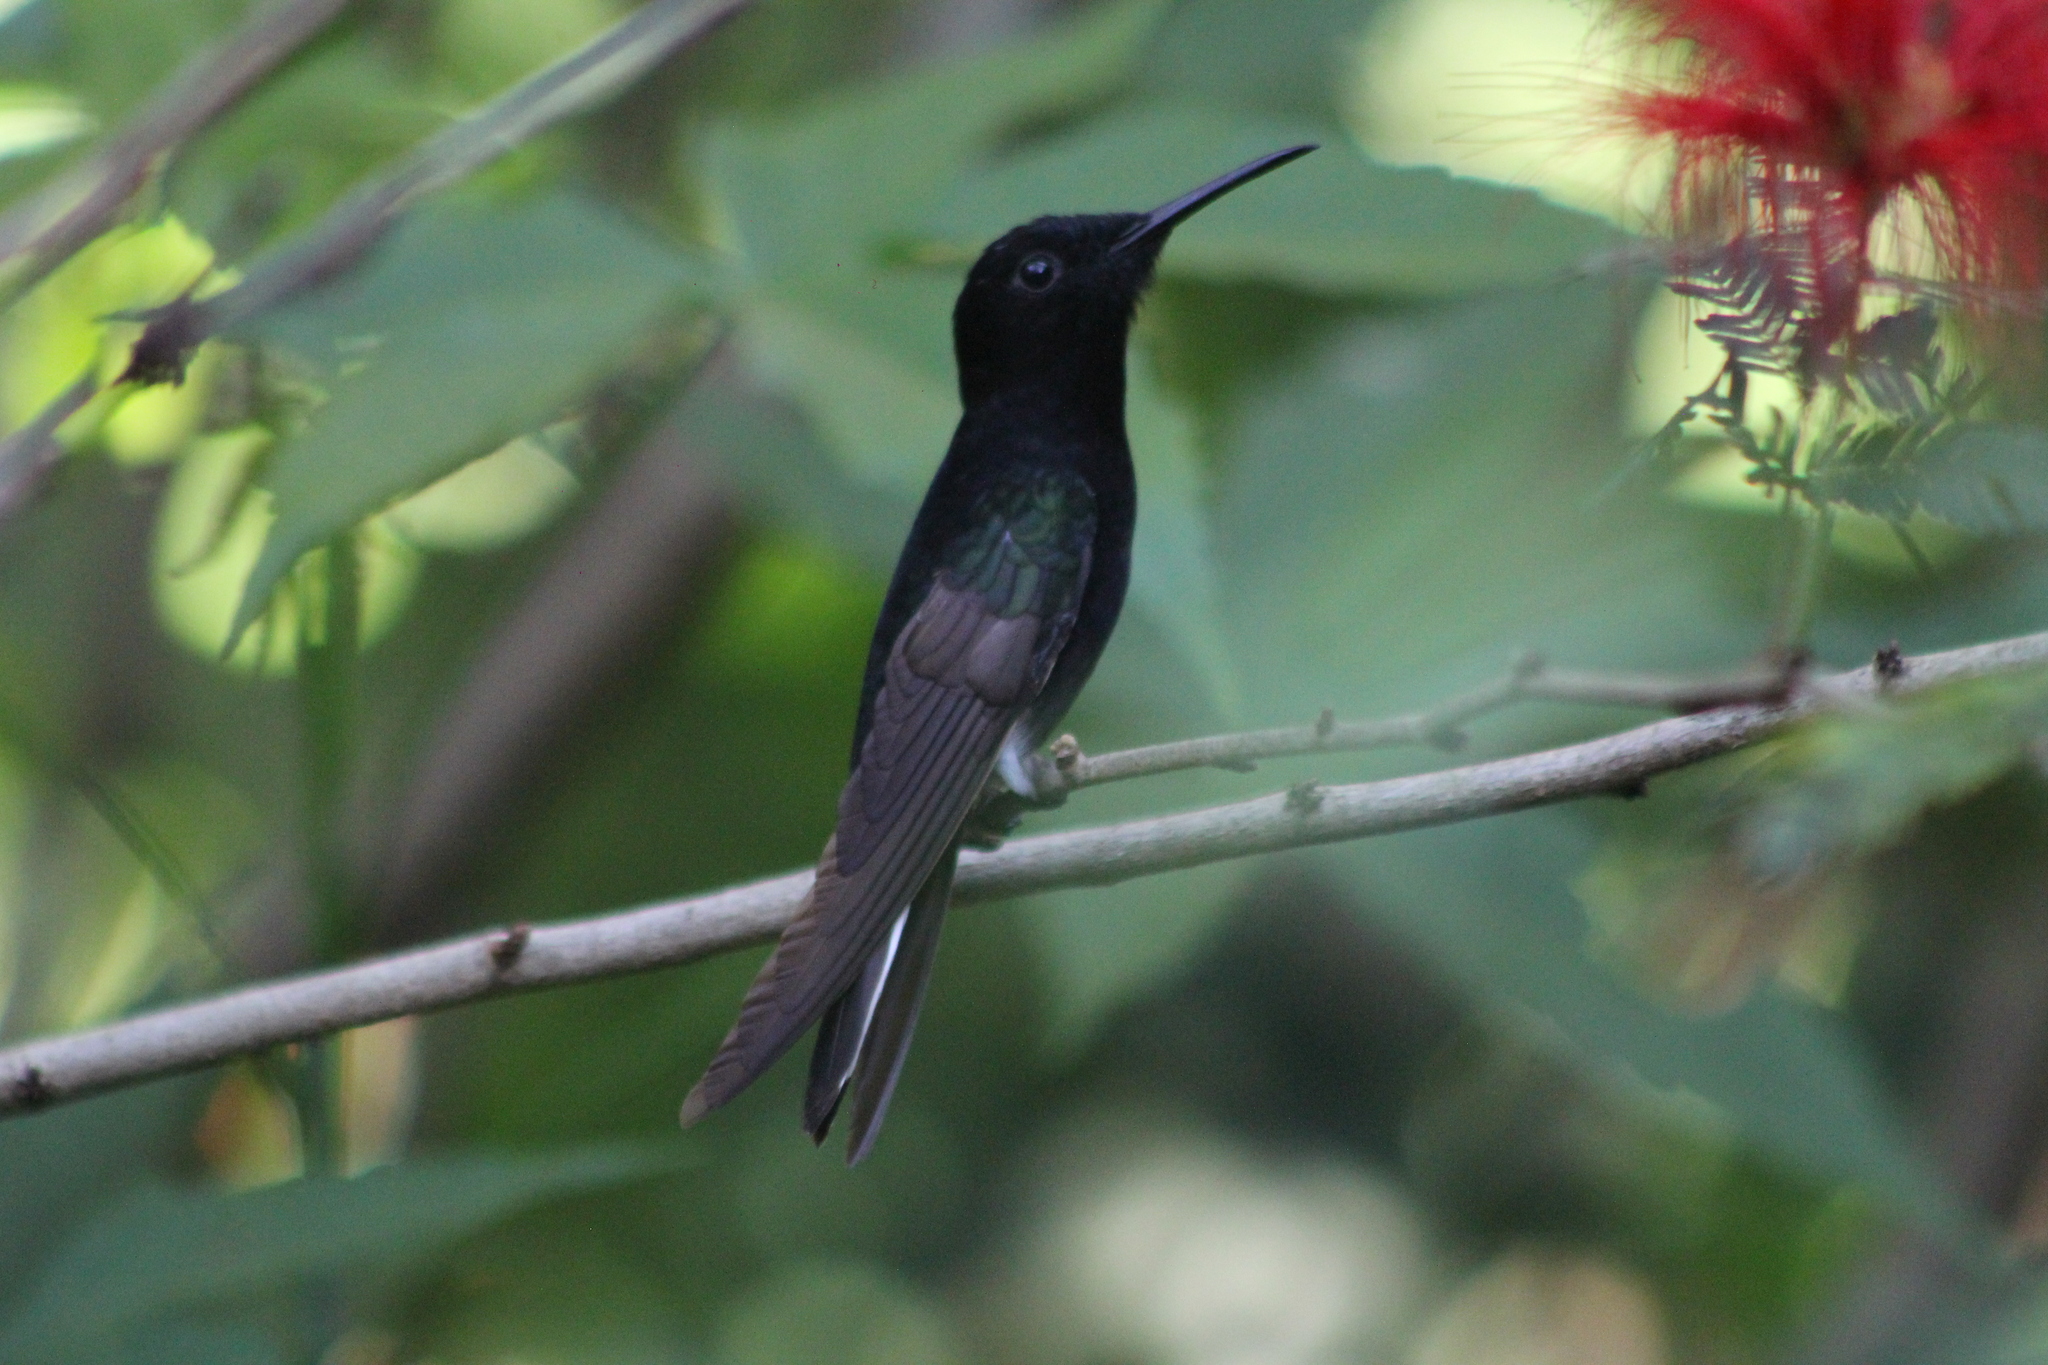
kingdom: Animalia
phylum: Chordata
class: Aves
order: Apodiformes
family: Trochilidae
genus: Florisuga
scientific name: Florisuga fusca
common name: Black jacobin
